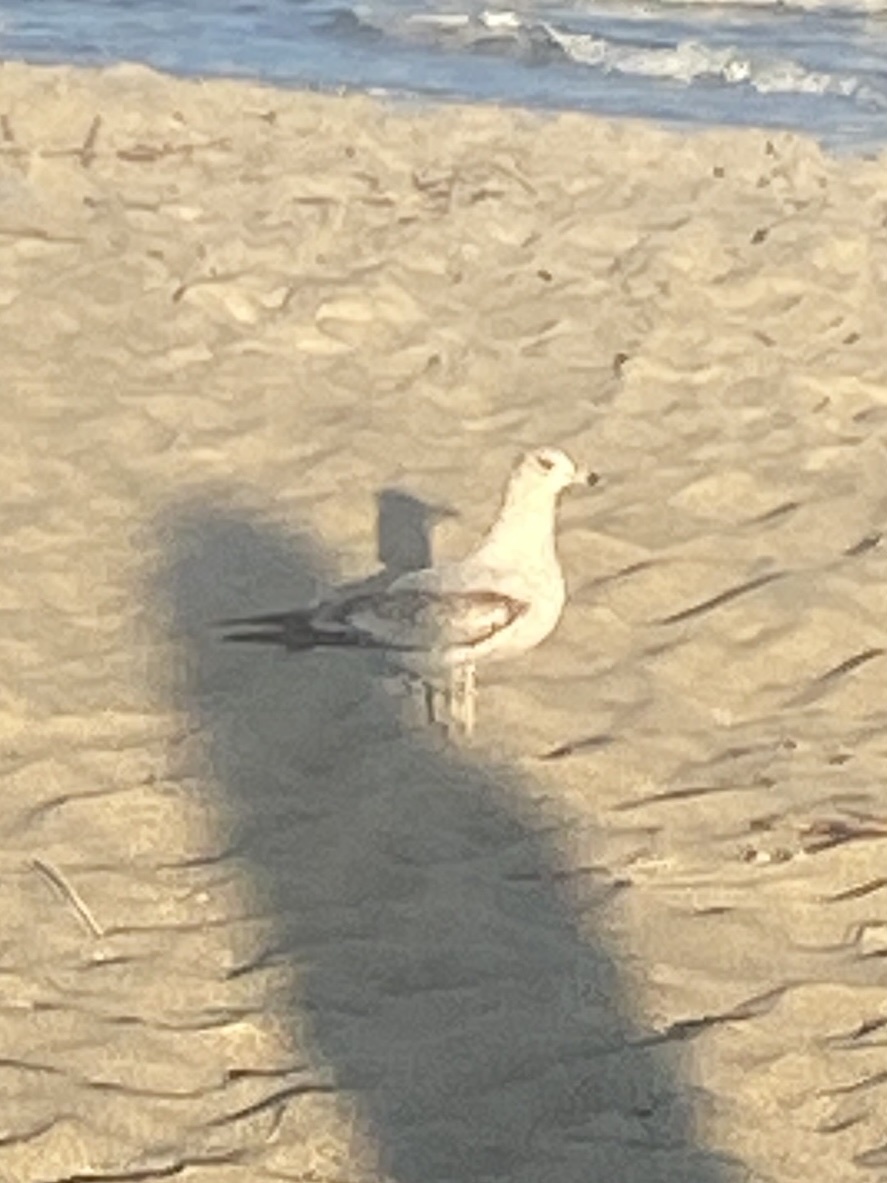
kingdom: Animalia
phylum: Chordata
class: Aves
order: Charadriiformes
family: Laridae
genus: Larus
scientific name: Larus delawarensis
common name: Ring-billed gull
